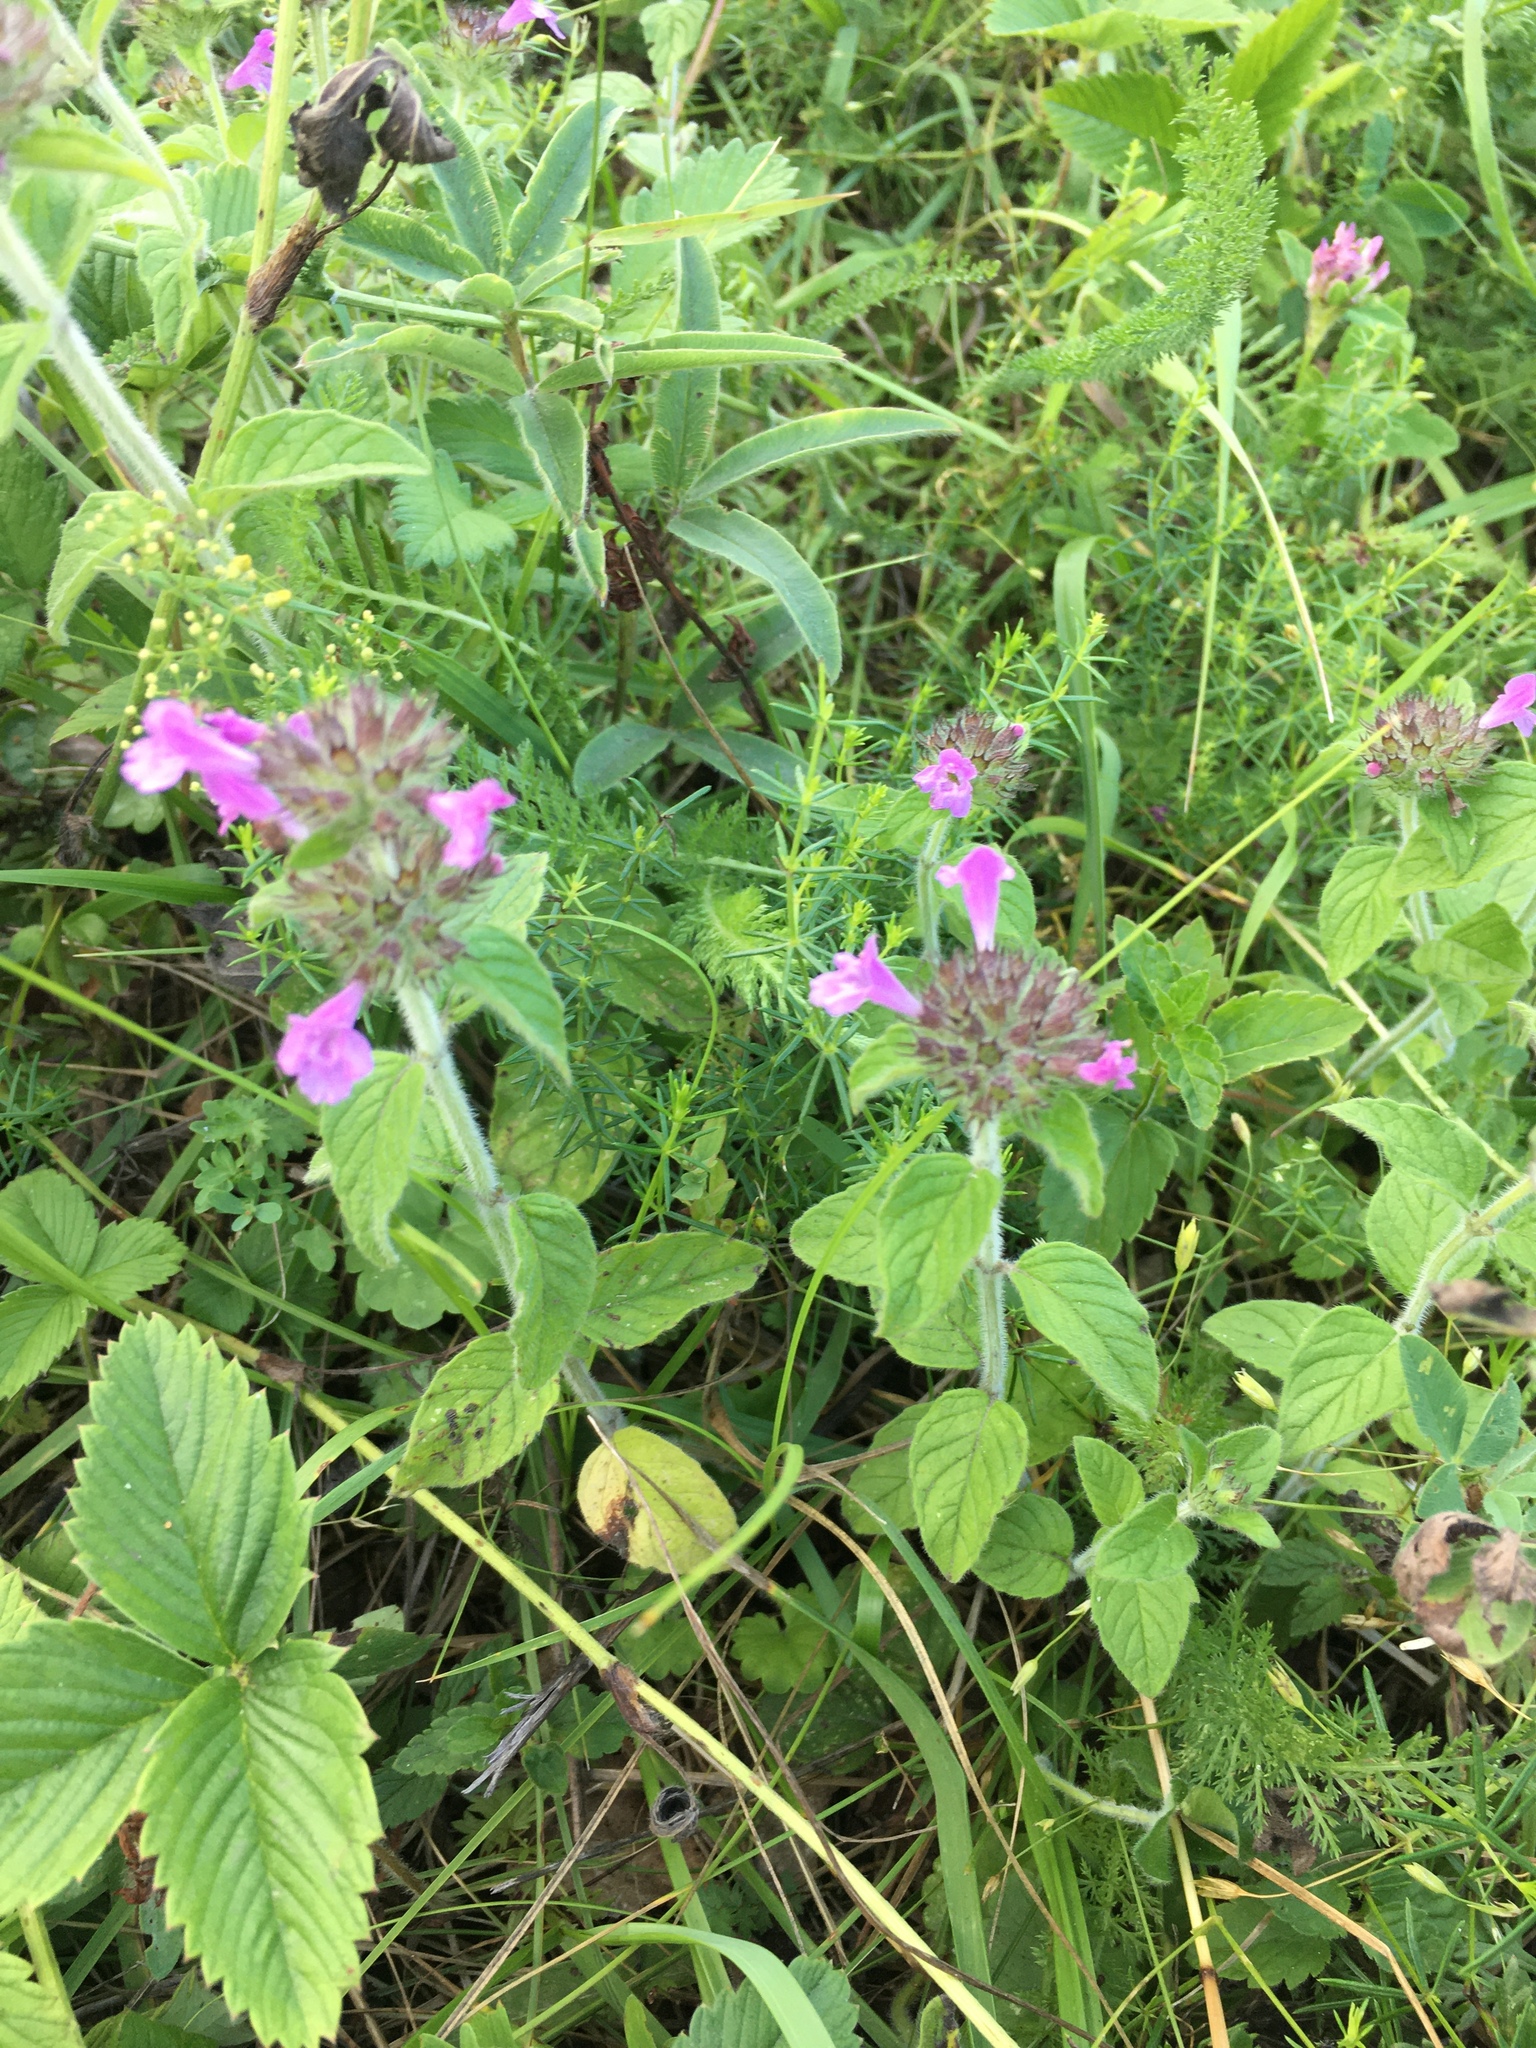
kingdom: Plantae
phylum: Tracheophyta
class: Magnoliopsida
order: Lamiales
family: Lamiaceae
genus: Clinopodium
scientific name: Clinopodium vulgare
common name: Wild basil
